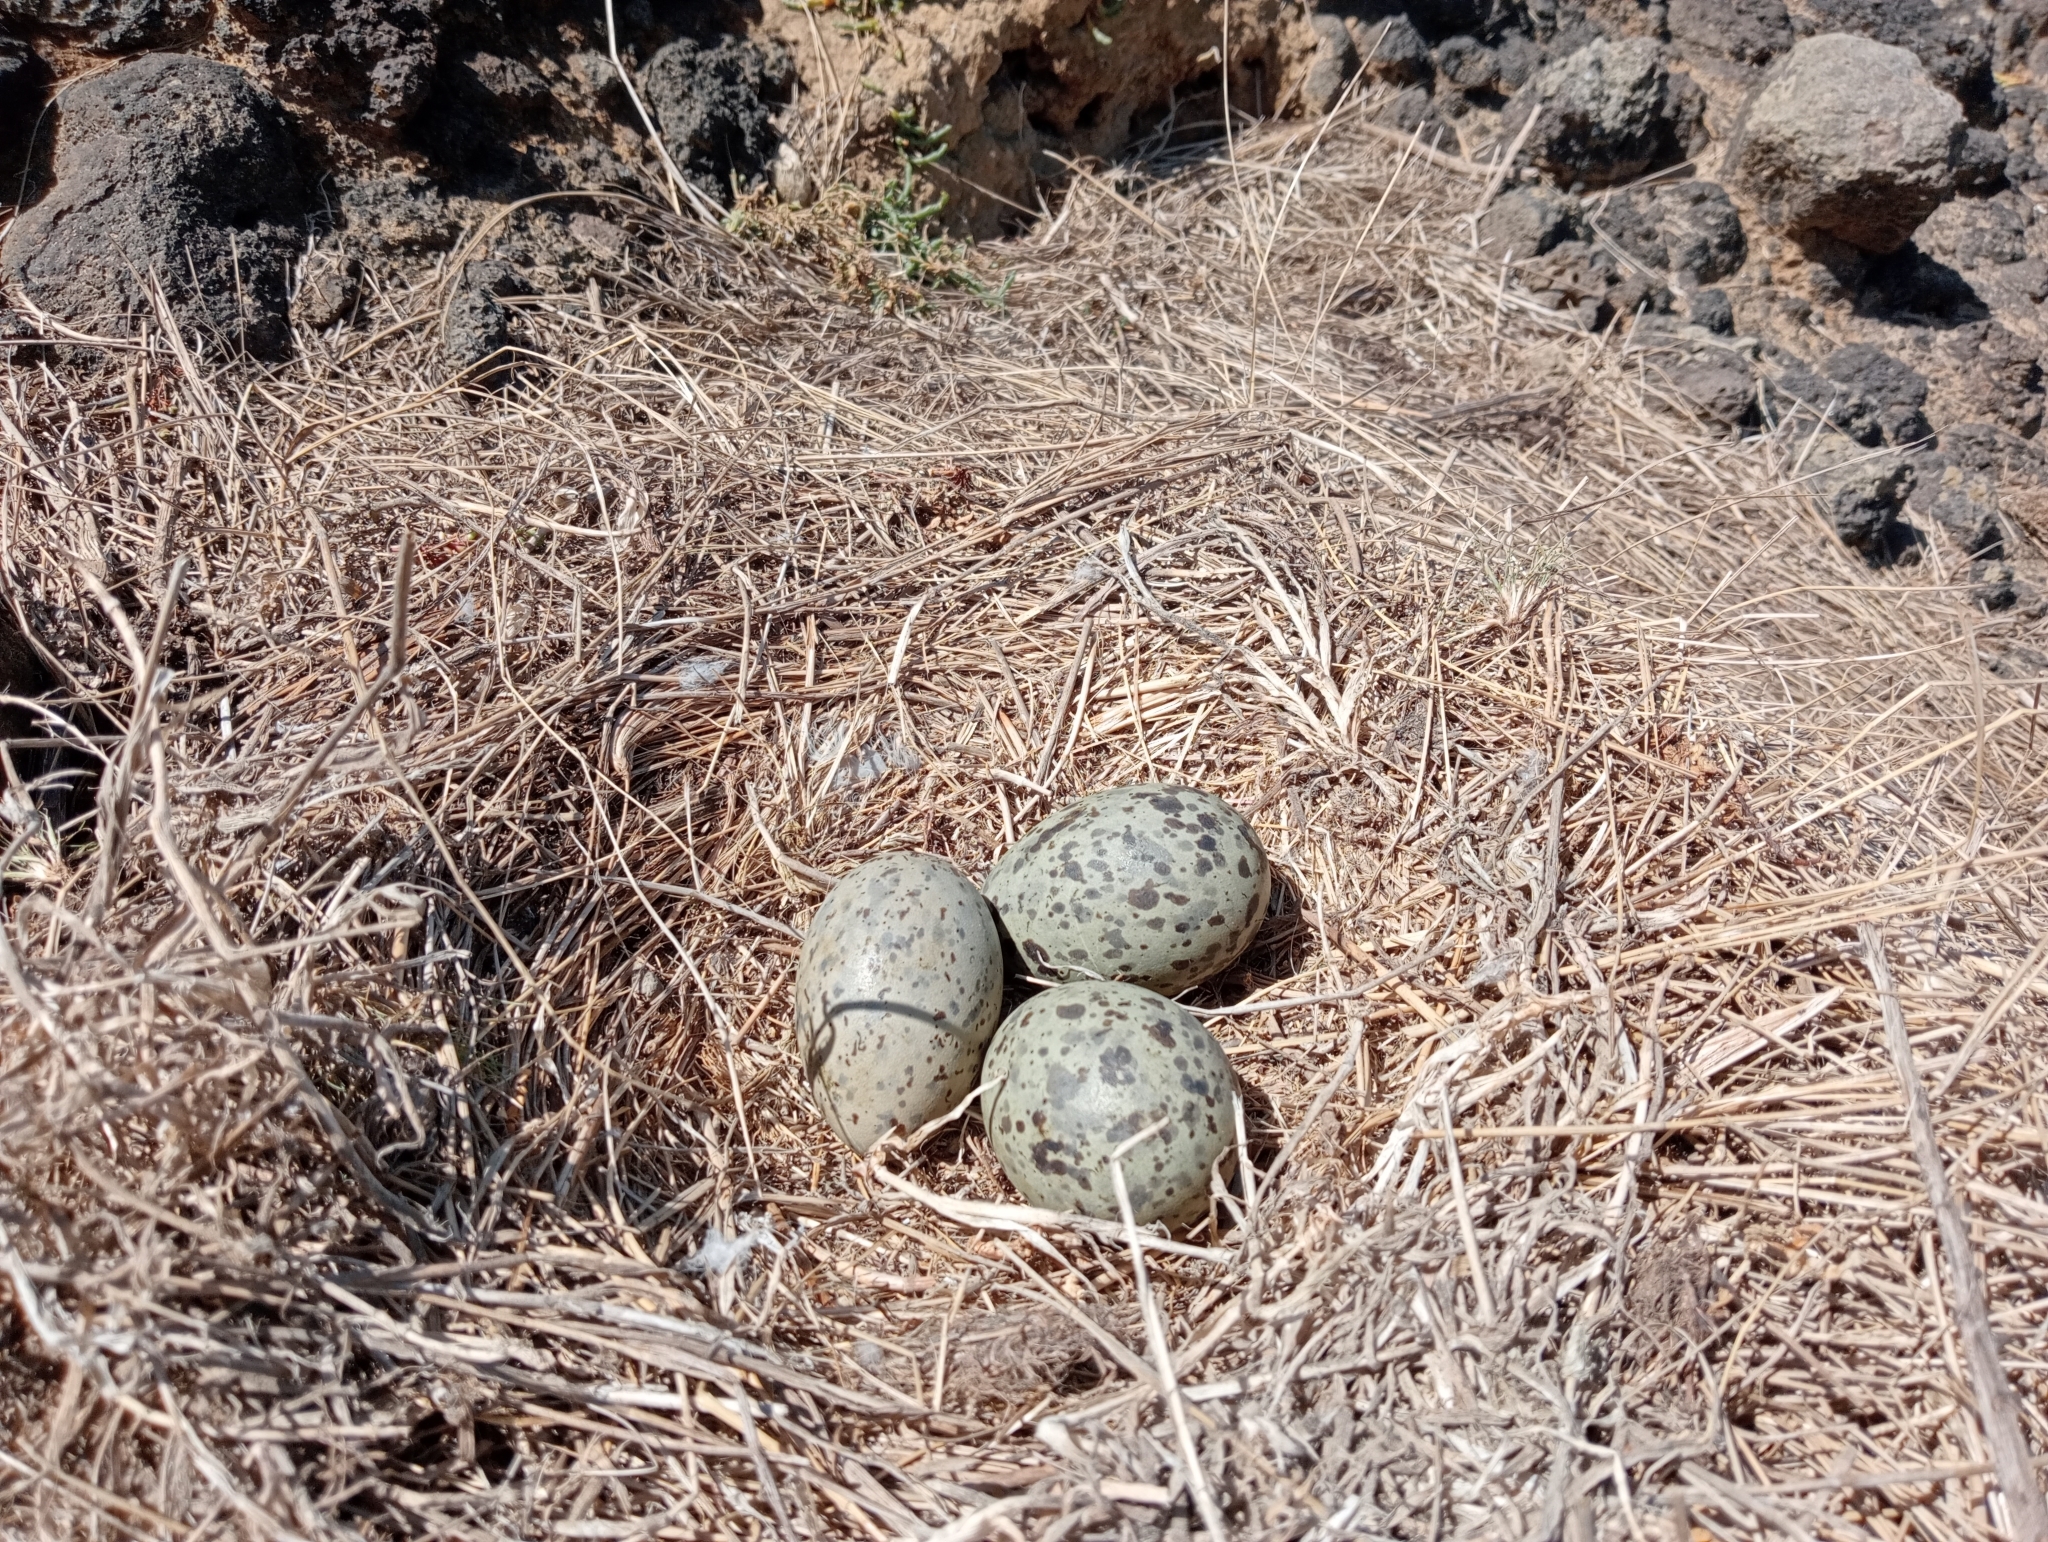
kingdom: Animalia
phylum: Chordata
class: Aves
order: Charadriiformes
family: Laridae
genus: Larus
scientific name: Larus dominicanus
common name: Kelp gull
